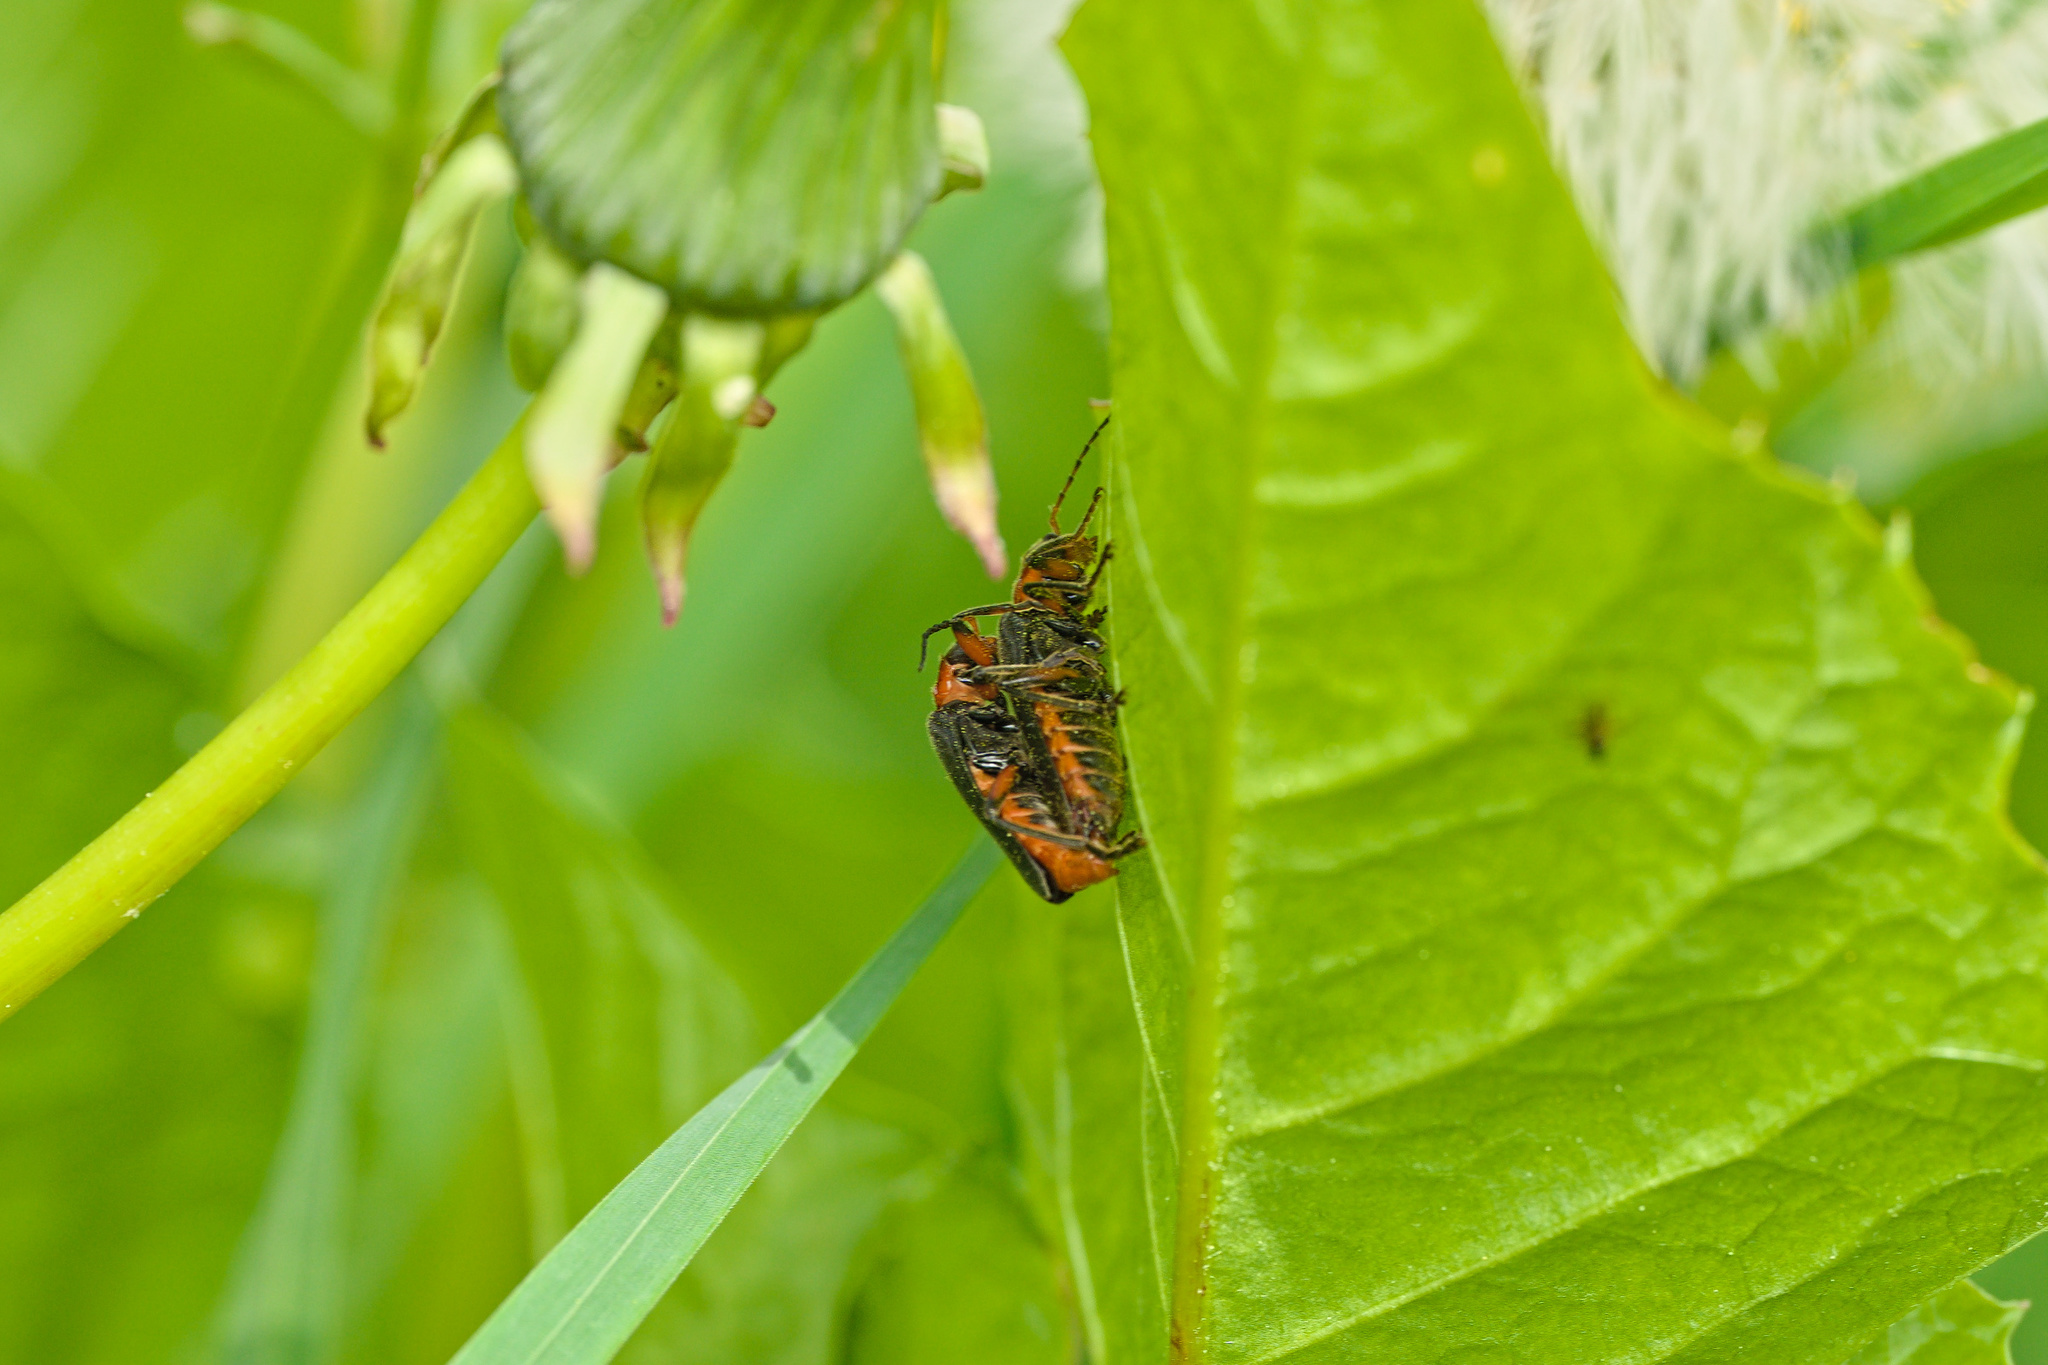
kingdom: Animalia
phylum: Arthropoda
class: Insecta
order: Coleoptera
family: Cantharidae
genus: Cantharis
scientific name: Cantharis rustica
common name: Soldier beetle
